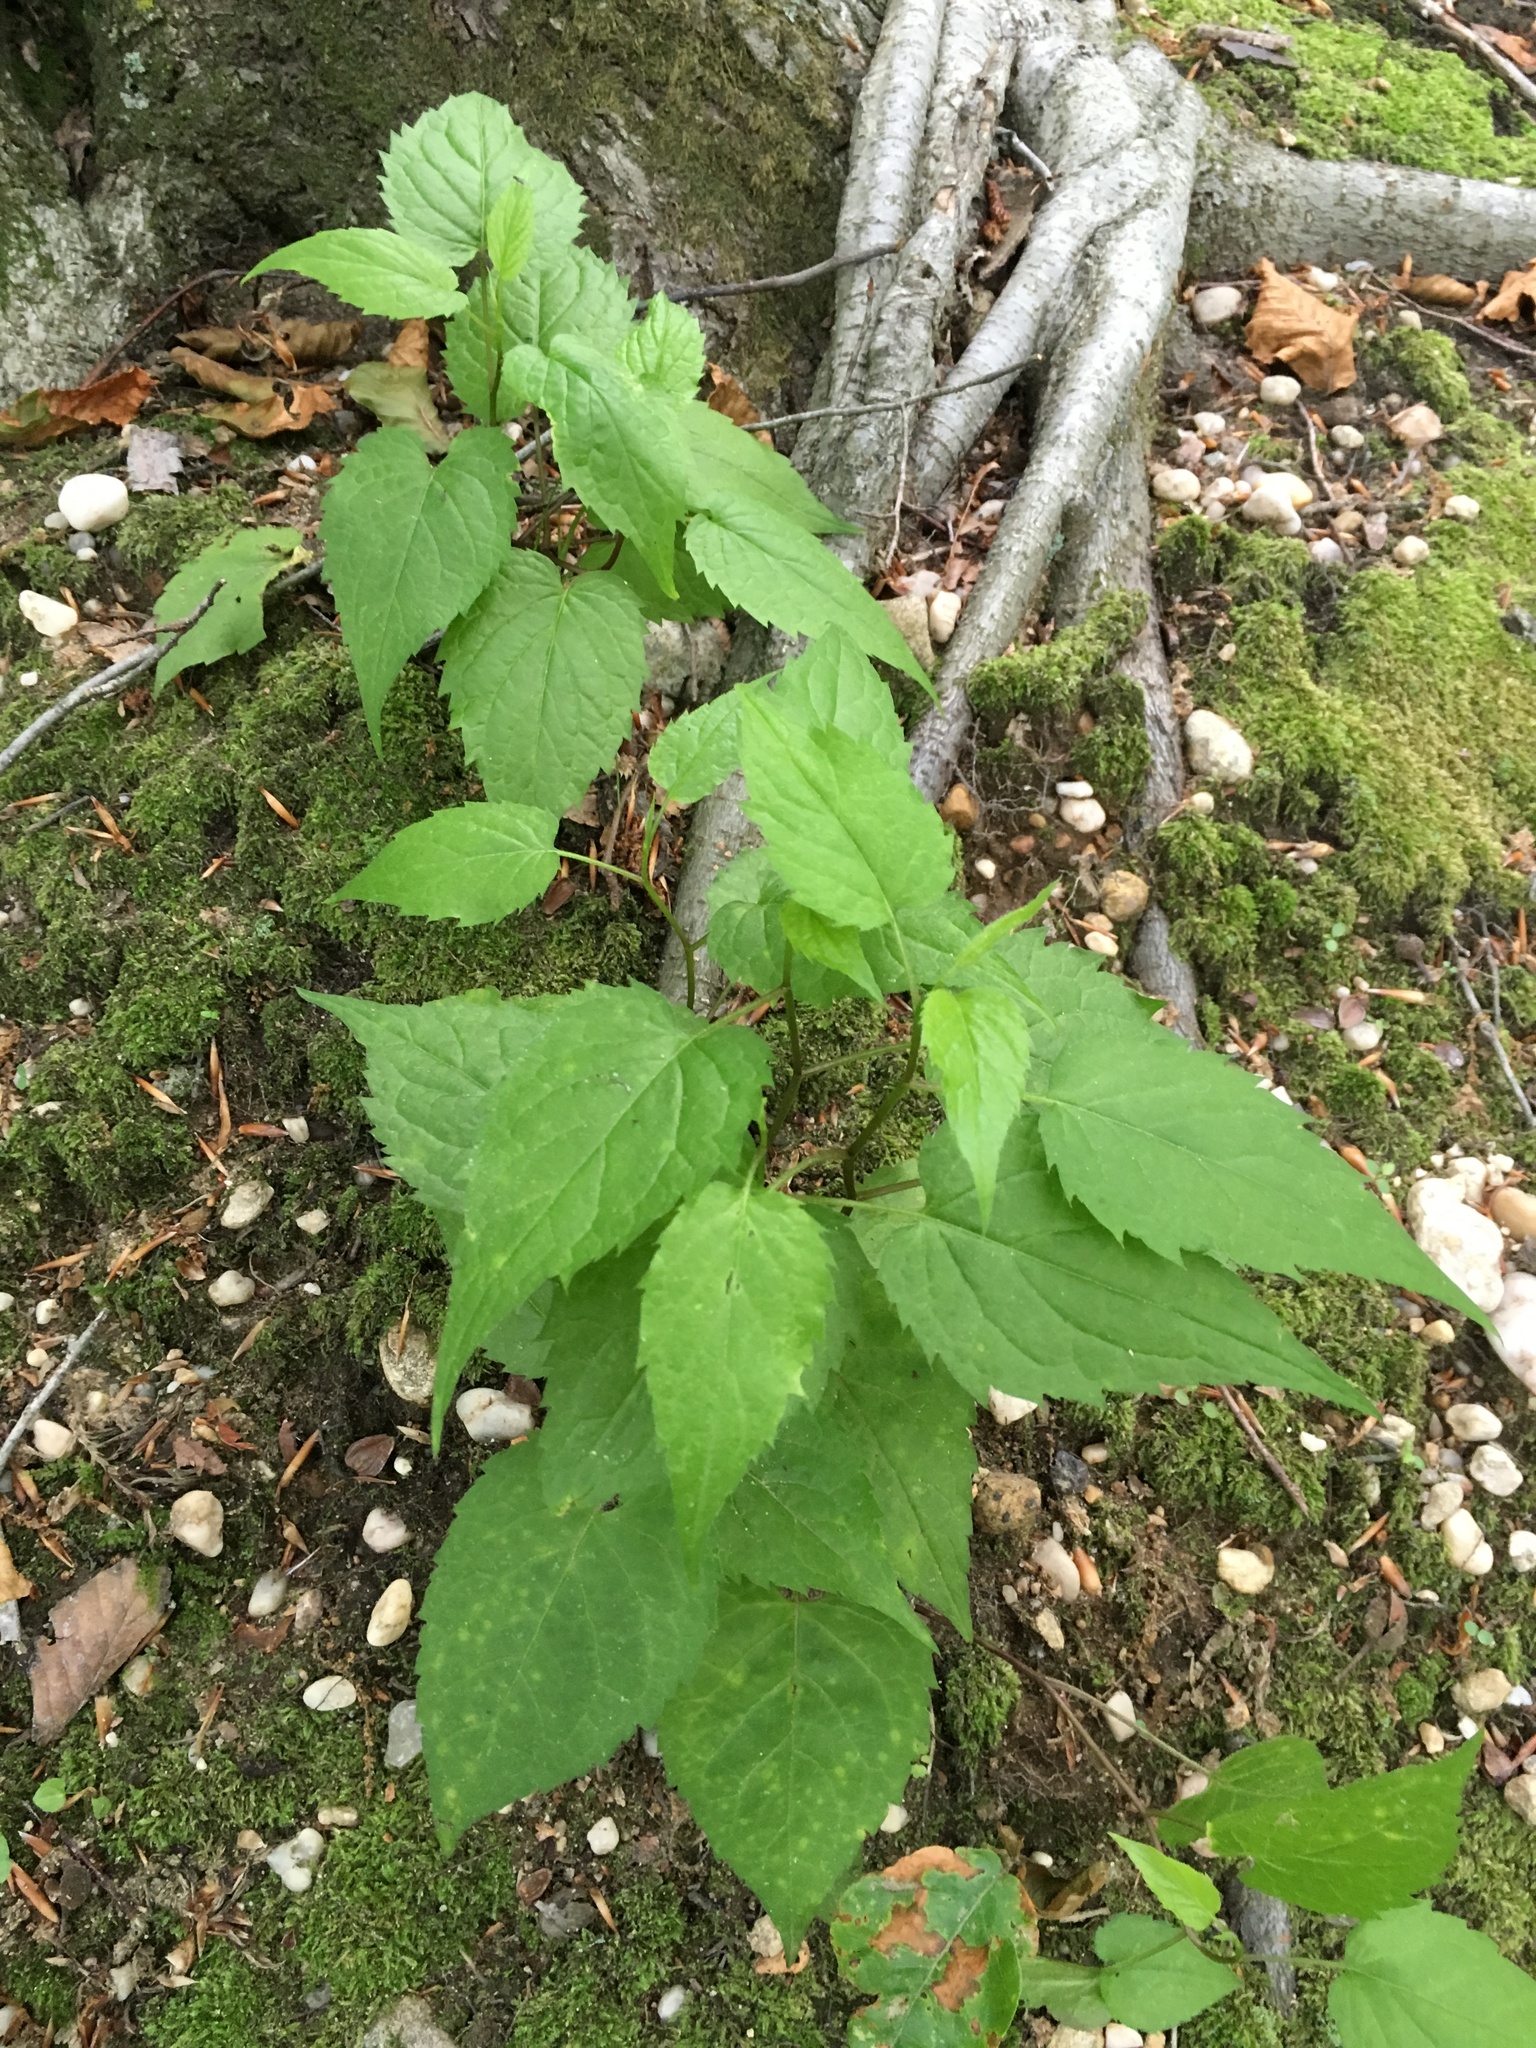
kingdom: Plantae
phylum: Tracheophyta
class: Magnoliopsida
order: Asterales
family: Asteraceae
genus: Eurybia
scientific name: Eurybia divaricata
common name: White wood aster
